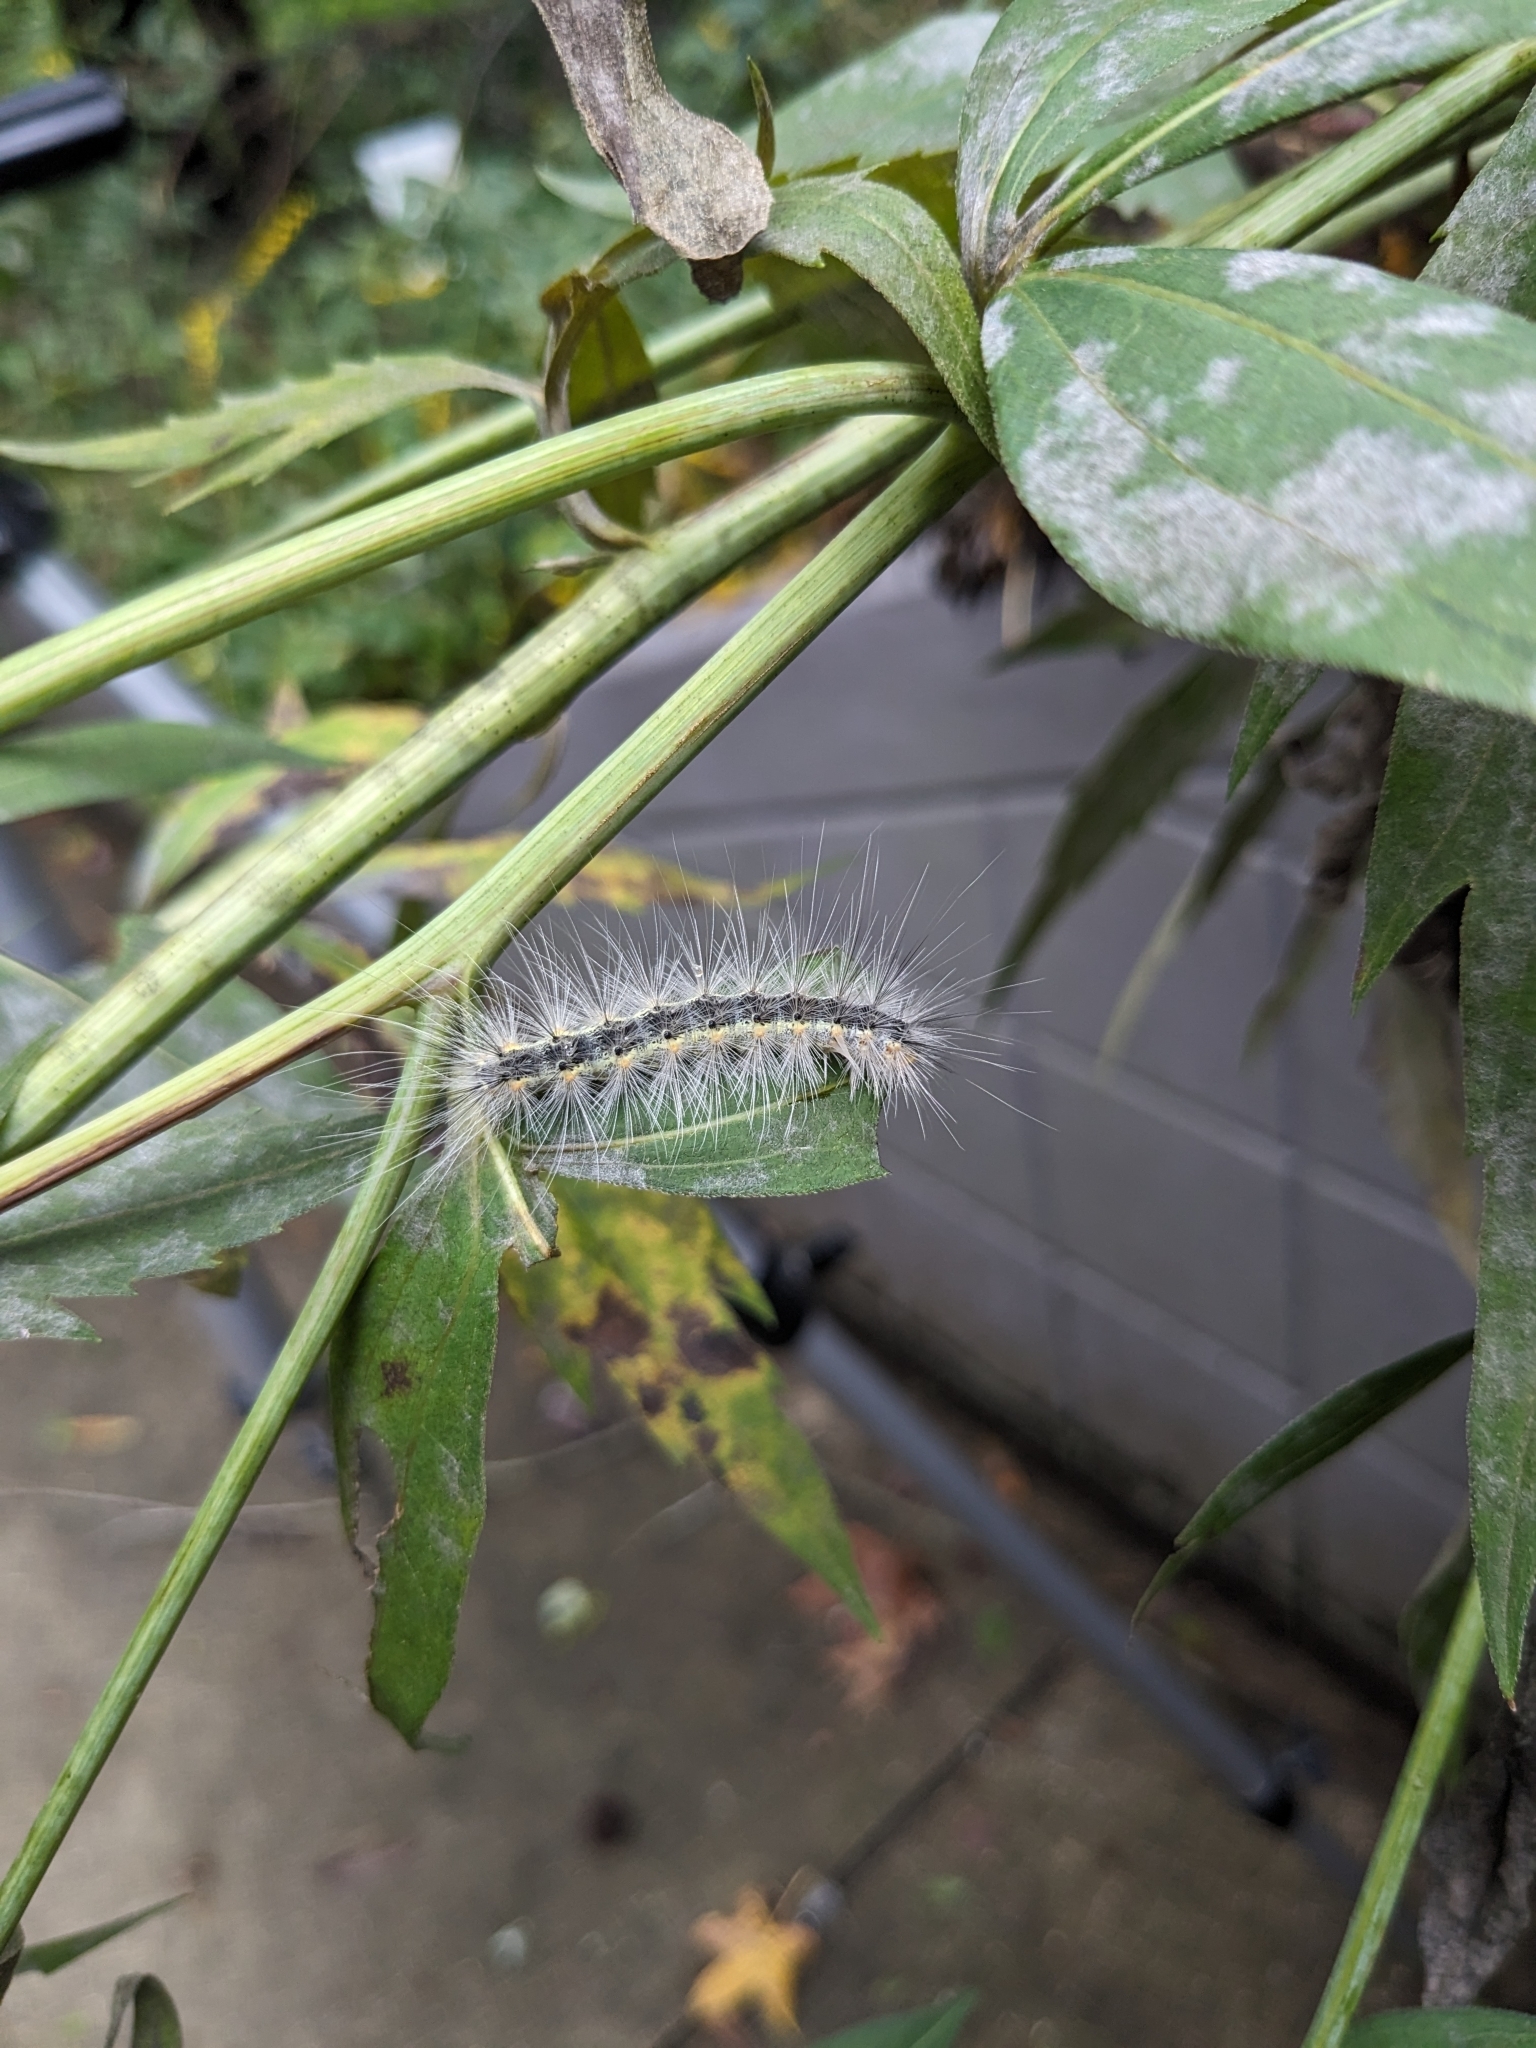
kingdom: Animalia
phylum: Arthropoda
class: Insecta
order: Lepidoptera
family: Erebidae
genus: Hyphantria
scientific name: Hyphantria cunea
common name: American white moth
